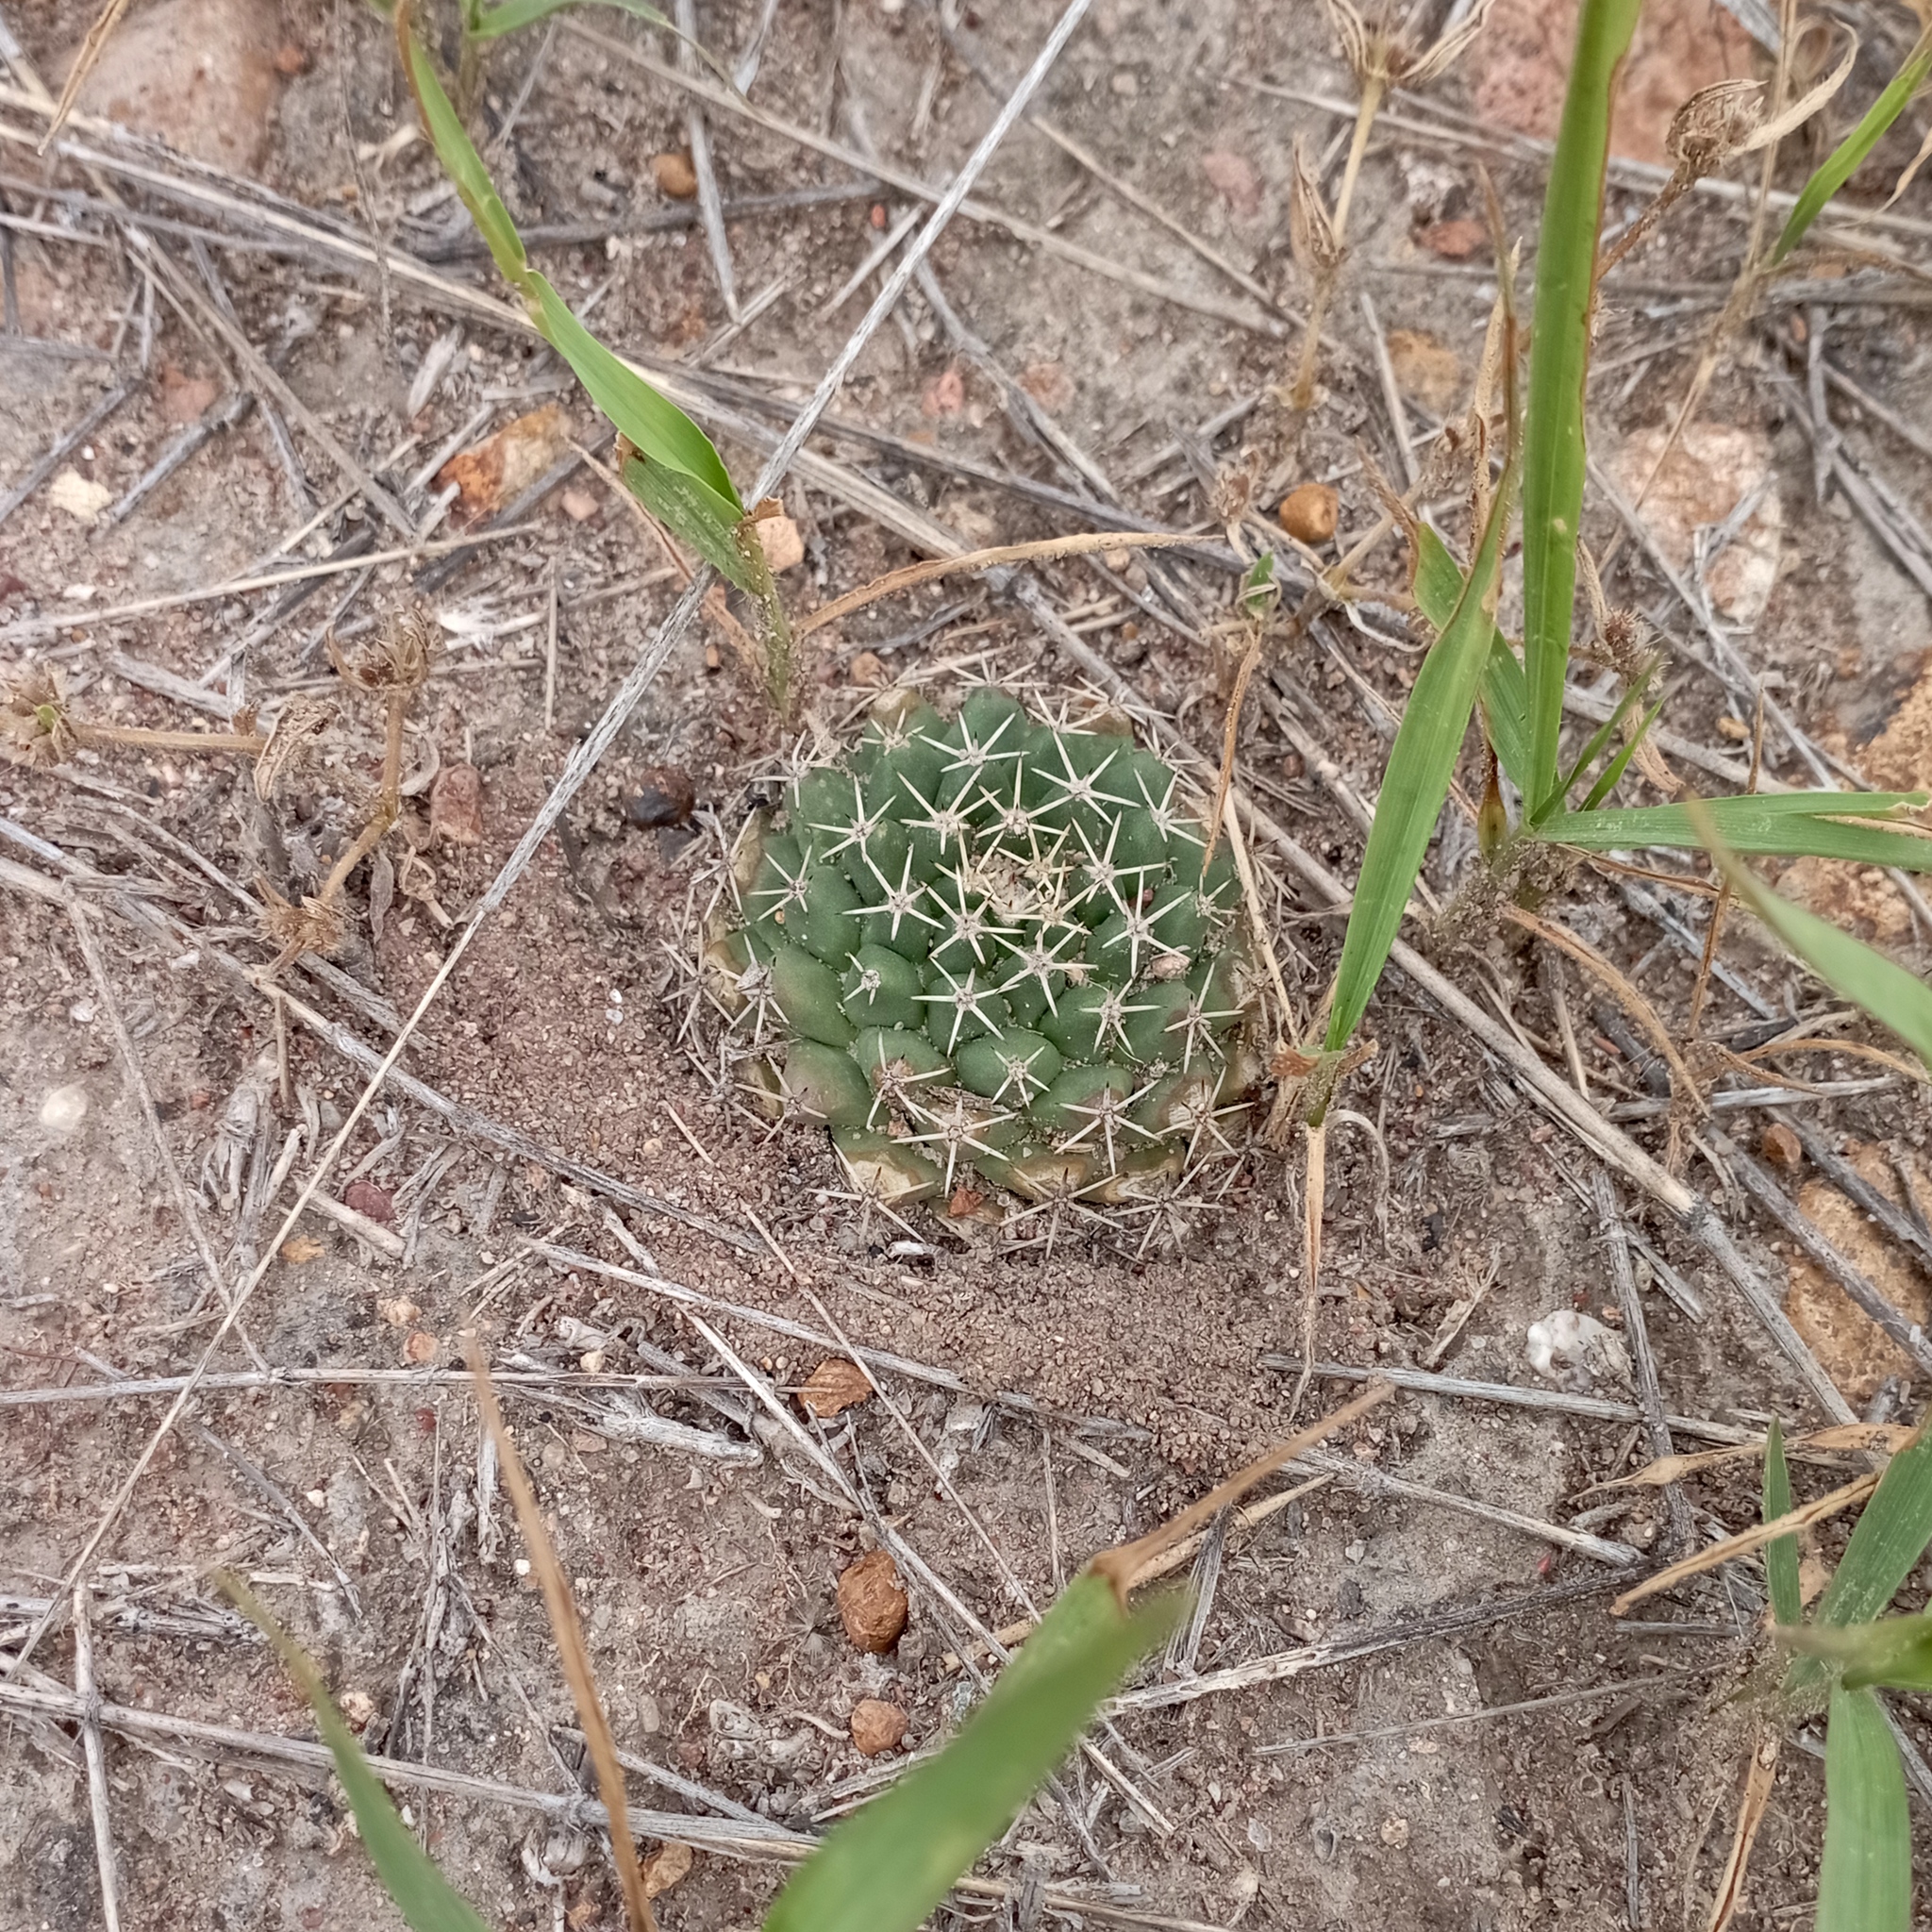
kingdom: Plantae
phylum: Tracheophyta
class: Magnoliopsida
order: Caryophyllales
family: Cactaceae
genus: Mammillaria
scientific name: Mammillaria uncinata
